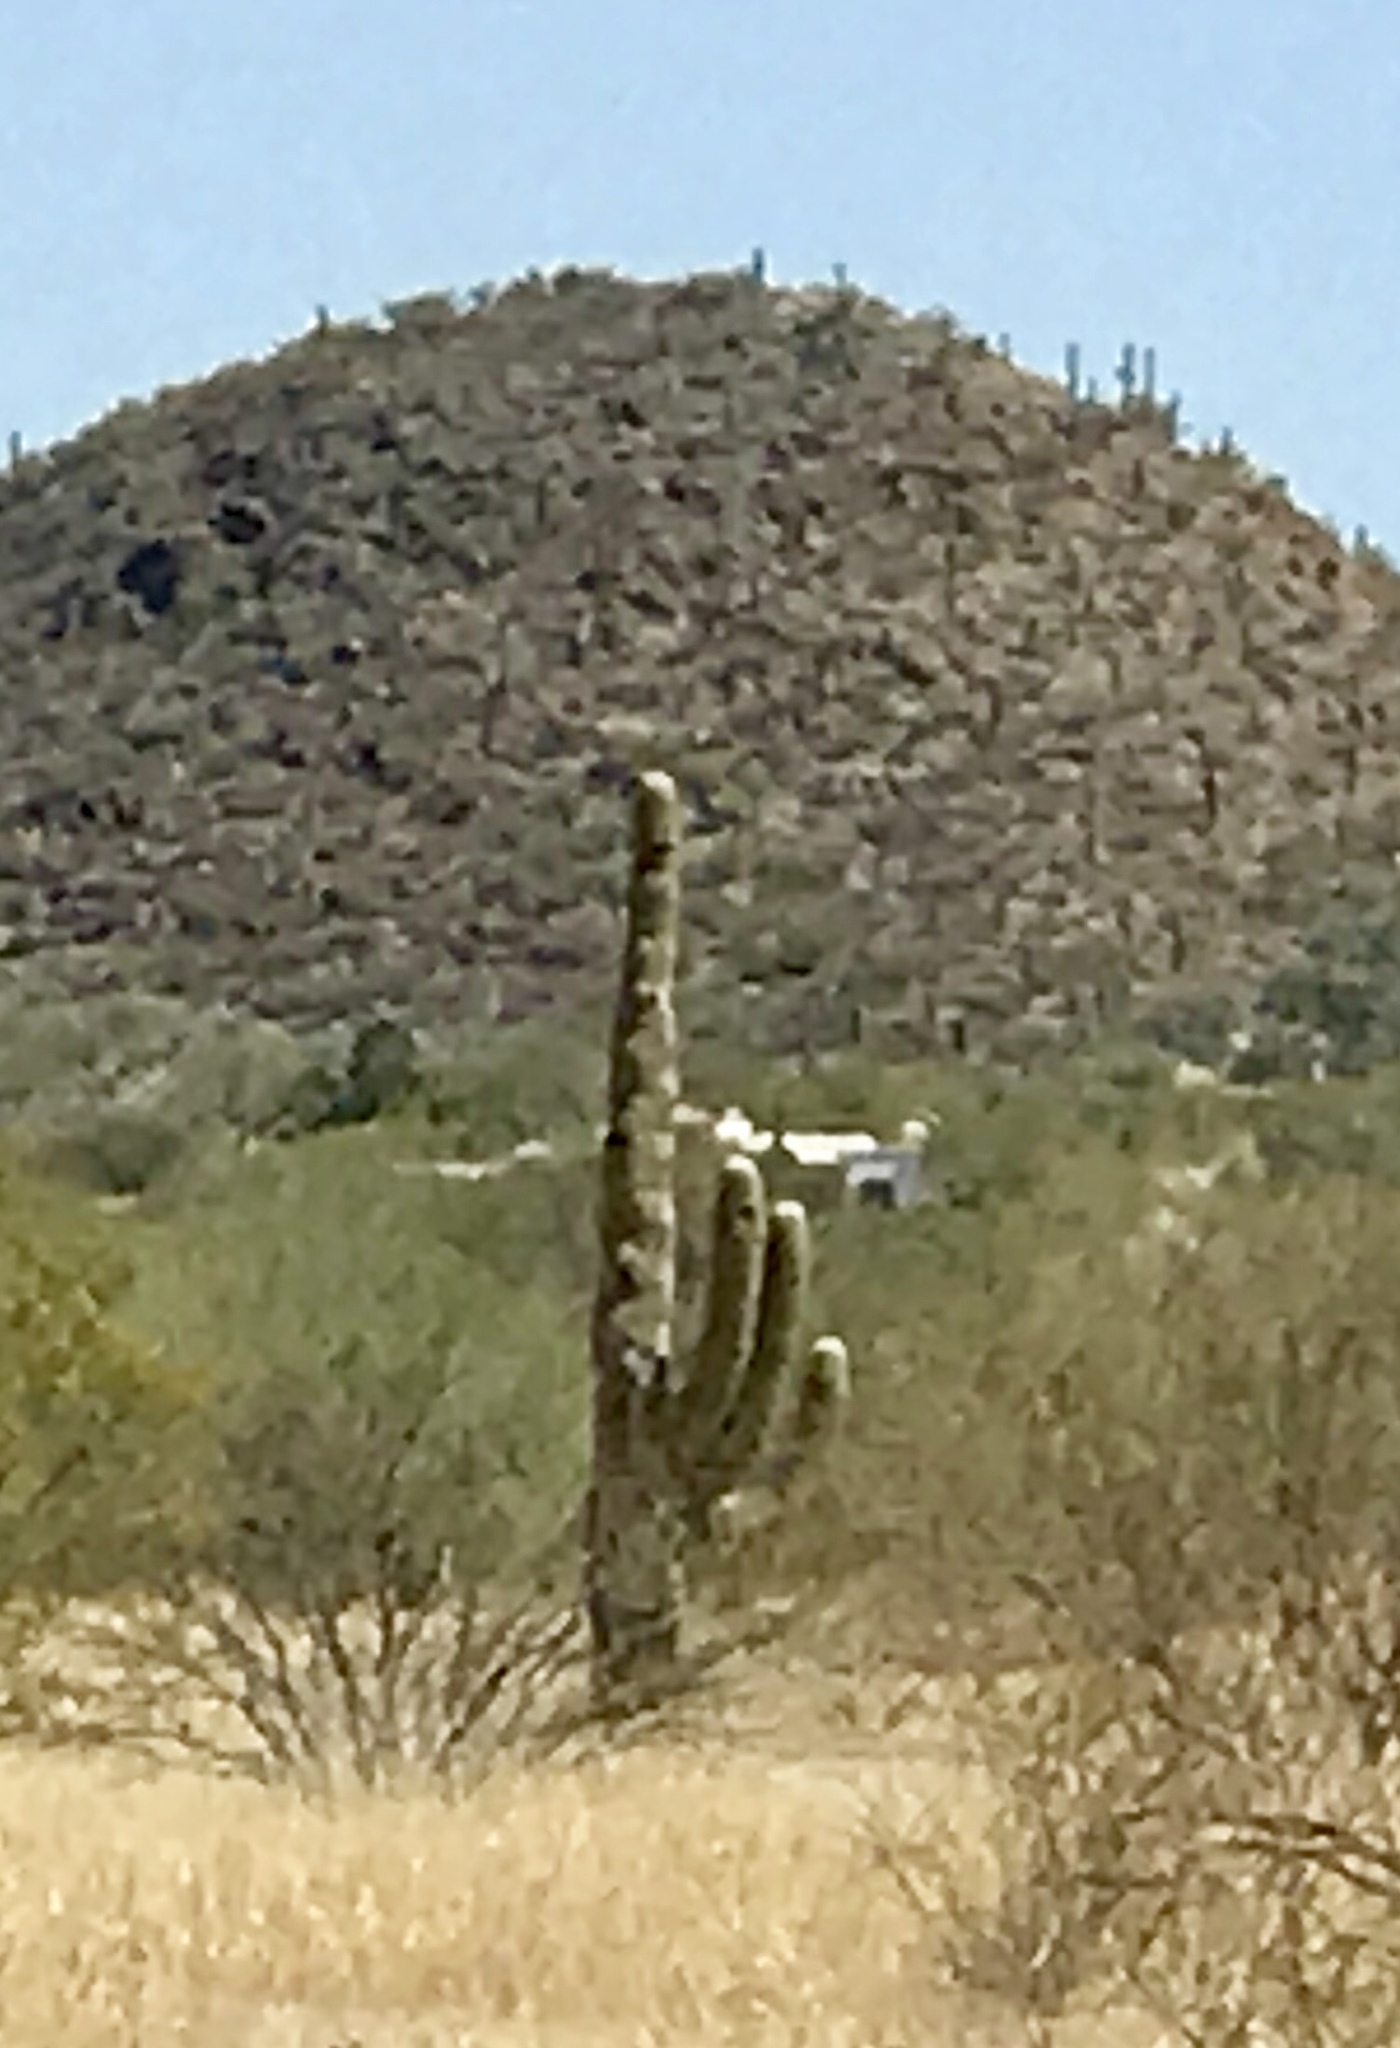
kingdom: Plantae
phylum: Tracheophyta
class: Magnoliopsida
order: Caryophyllales
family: Cactaceae
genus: Carnegiea
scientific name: Carnegiea gigantea
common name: Saguaro
